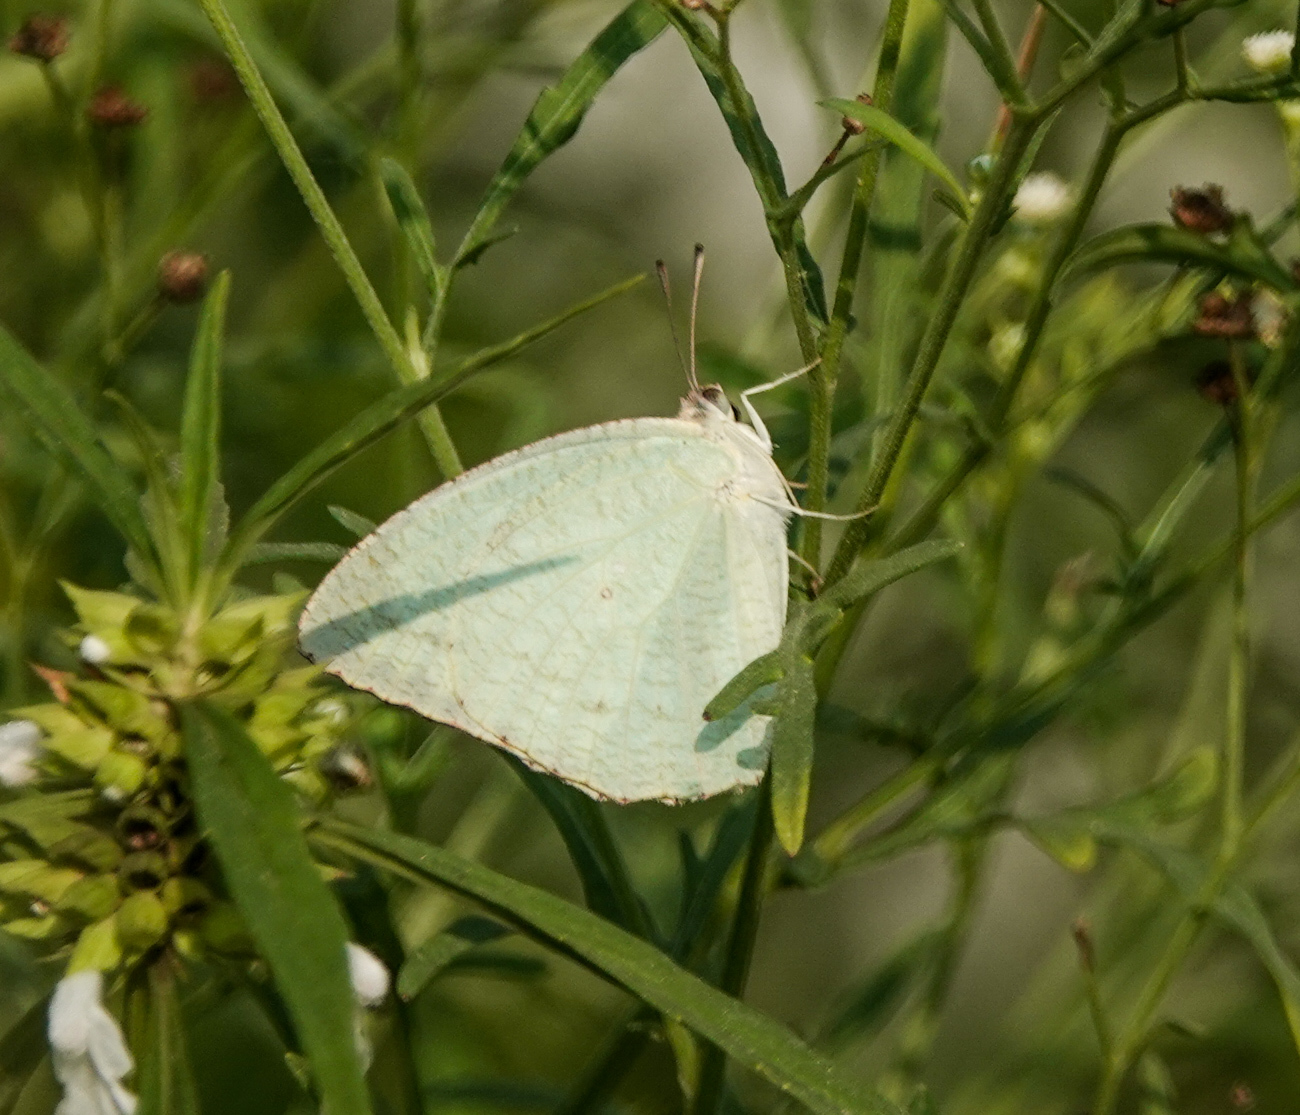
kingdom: Animalia
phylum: Arthropoda
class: Insecta
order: Lepidoptera
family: Pieridae
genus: Catopsilia
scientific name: Catopsilia pyranthe
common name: Mottled emigrant
